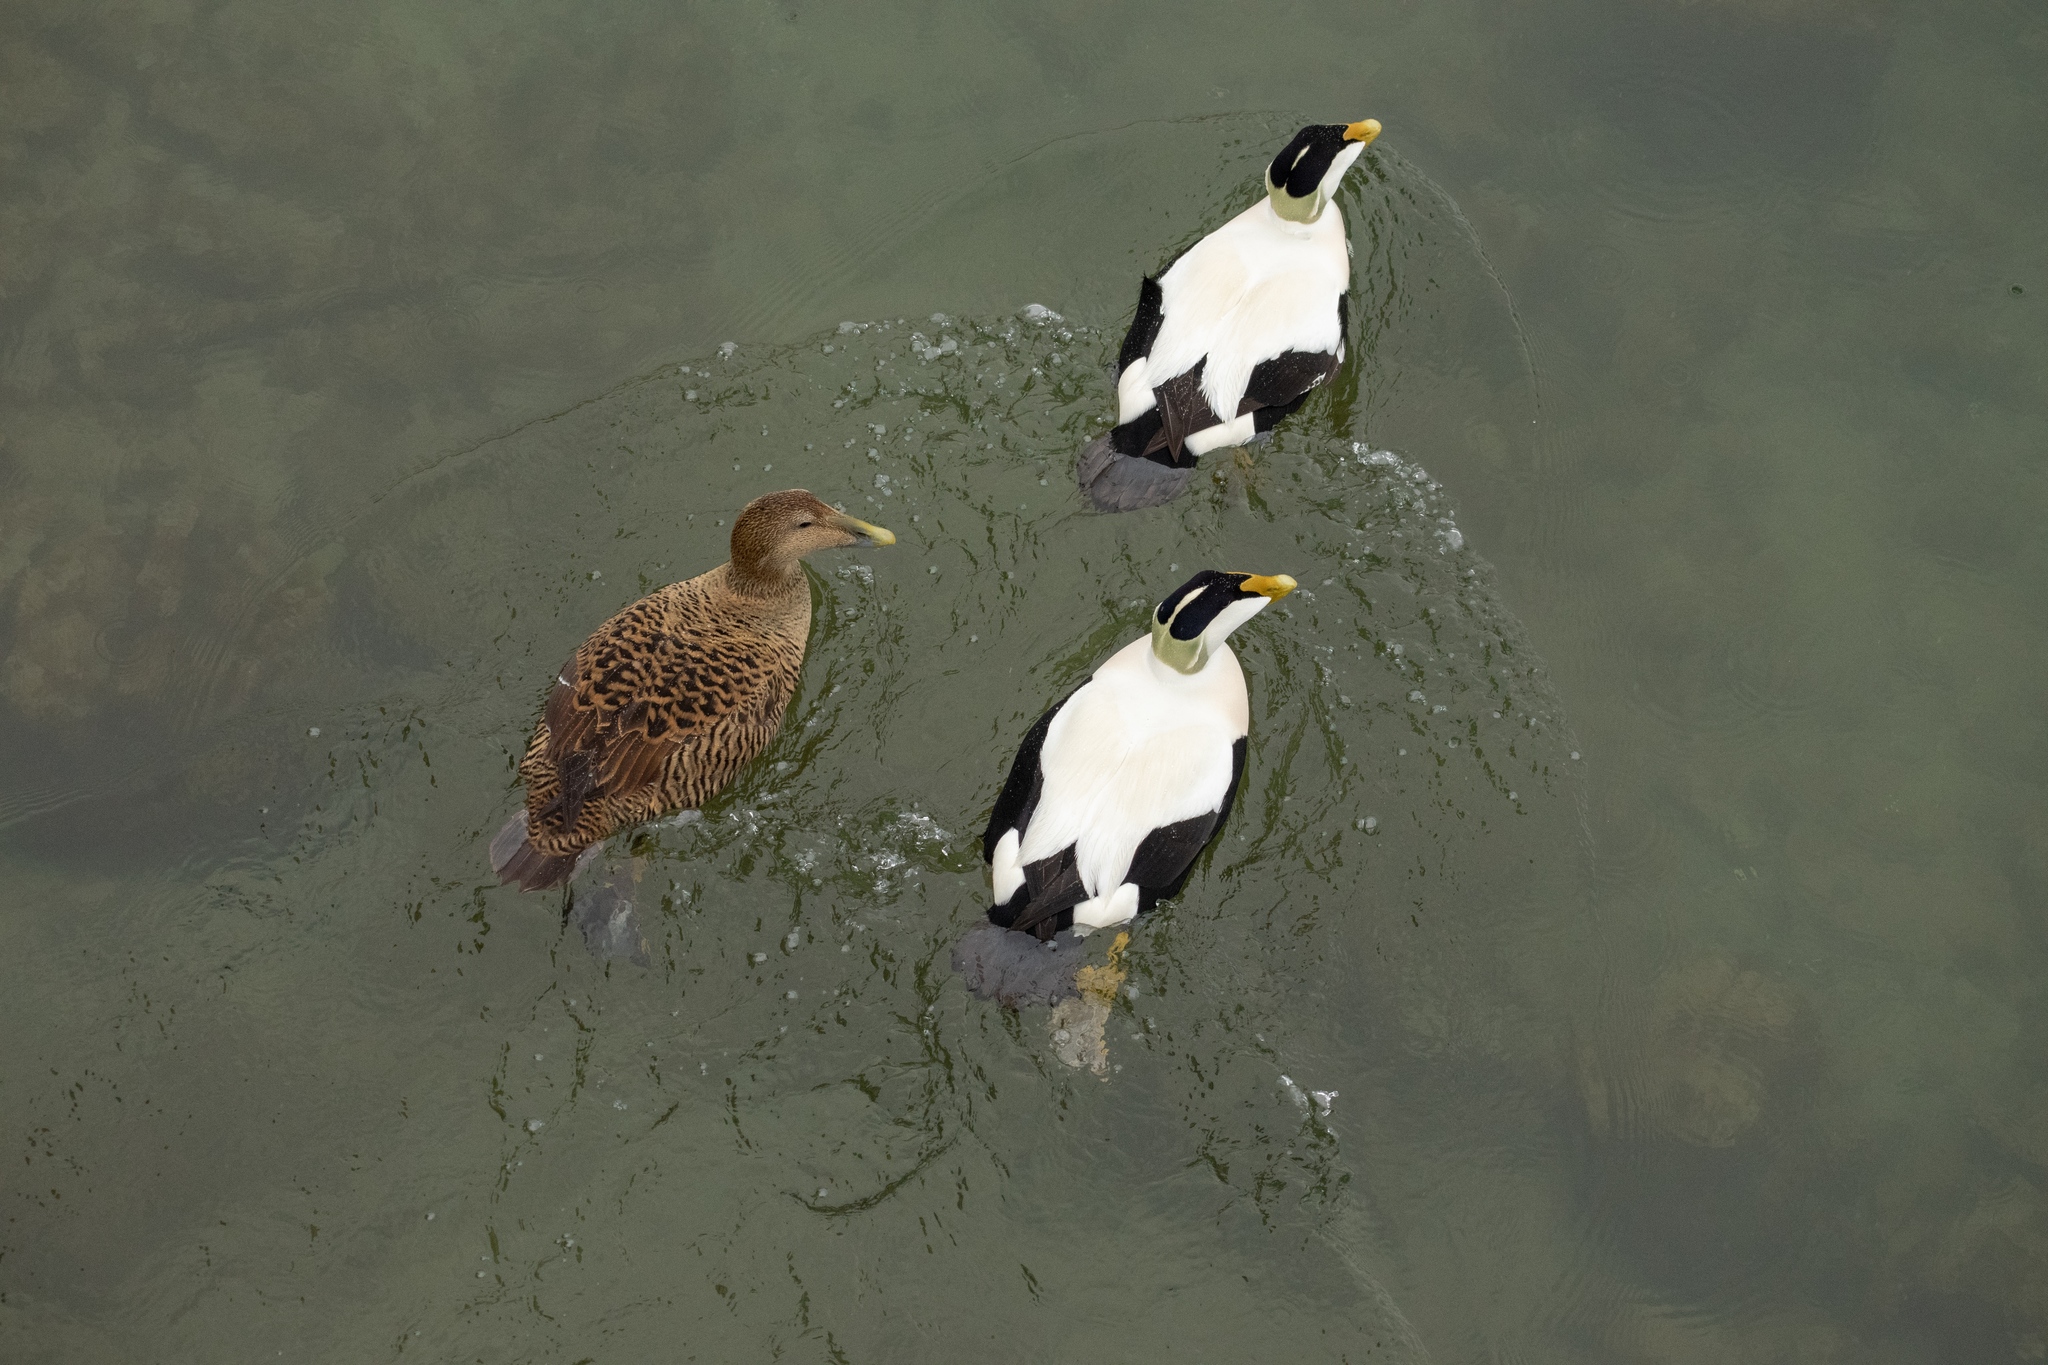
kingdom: Animalia
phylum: Chordata
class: Aves
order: Anseriformes
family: Anatidae
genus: Somateria
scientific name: Somateria mollissima
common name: Common eider
